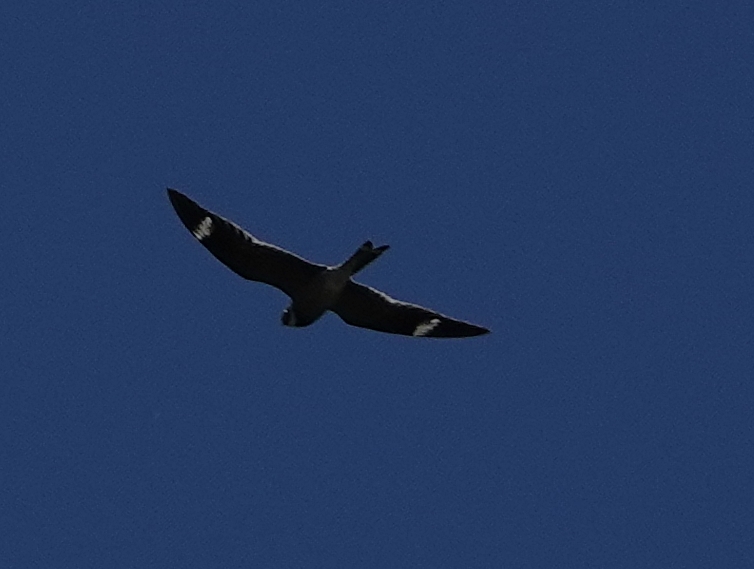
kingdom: Animalia
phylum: Chordata
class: Aves
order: Caprimulgiformes
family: Caprimulgidae
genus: Chordeiles
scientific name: Chordeiles minor
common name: Common nighthawk
